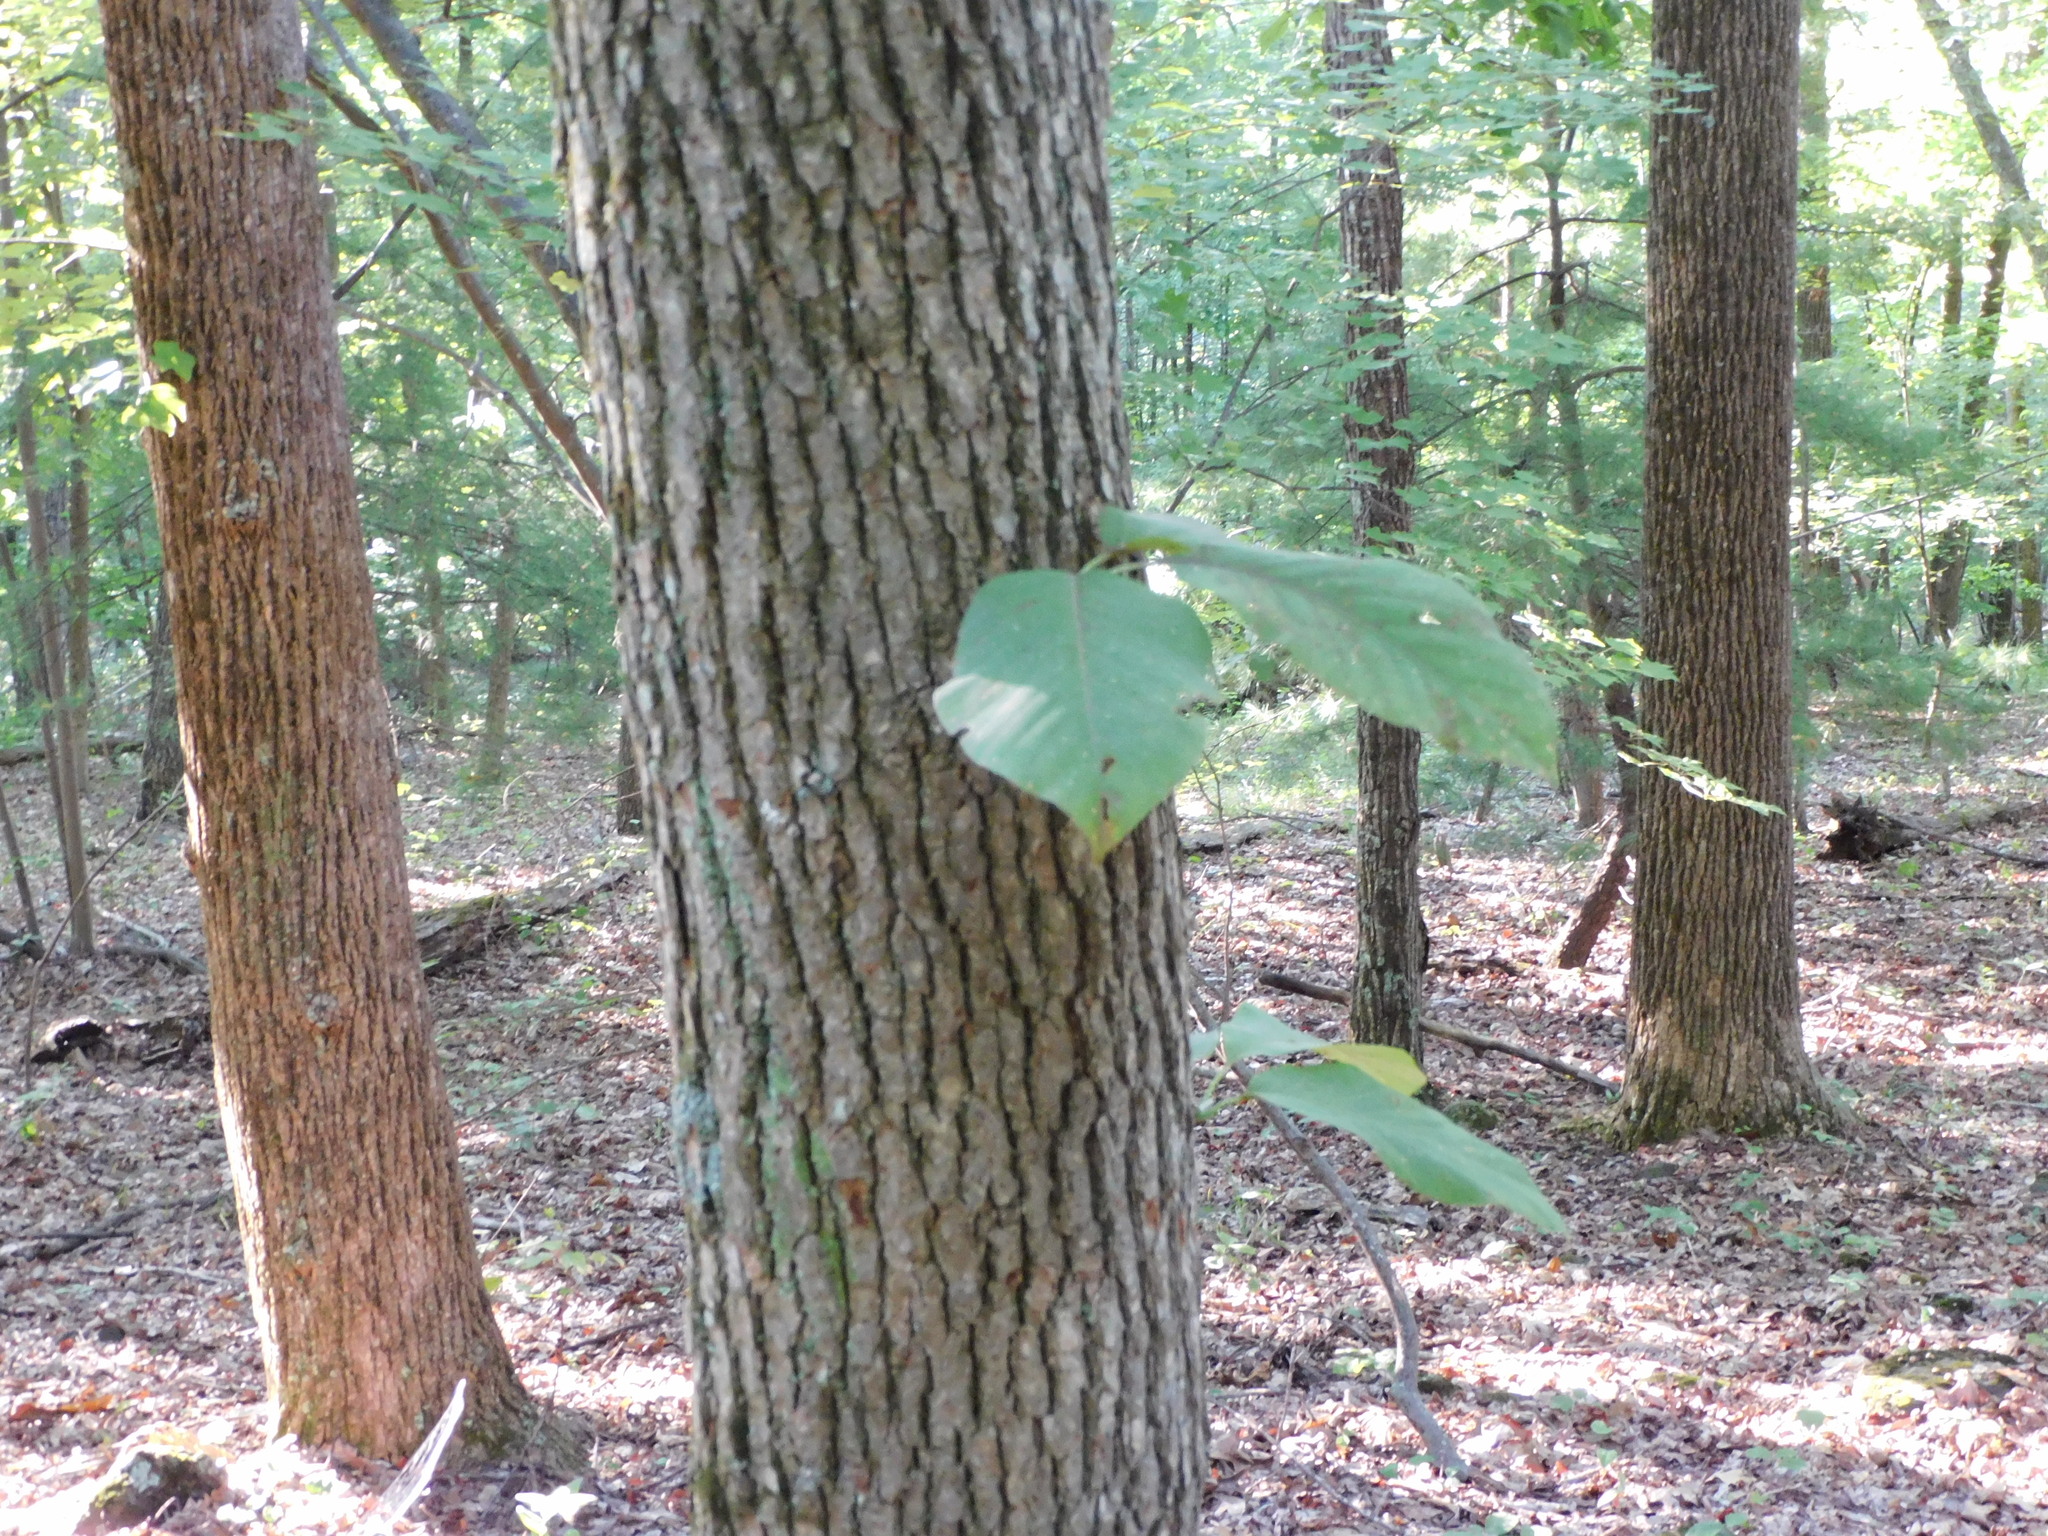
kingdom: Plantae
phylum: Tracheophyta
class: Magnoliopsida
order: Magnoliales
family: Magnoliaceae
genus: Magnolia
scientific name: Magnolia acuminata
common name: Cucumber magnolia
